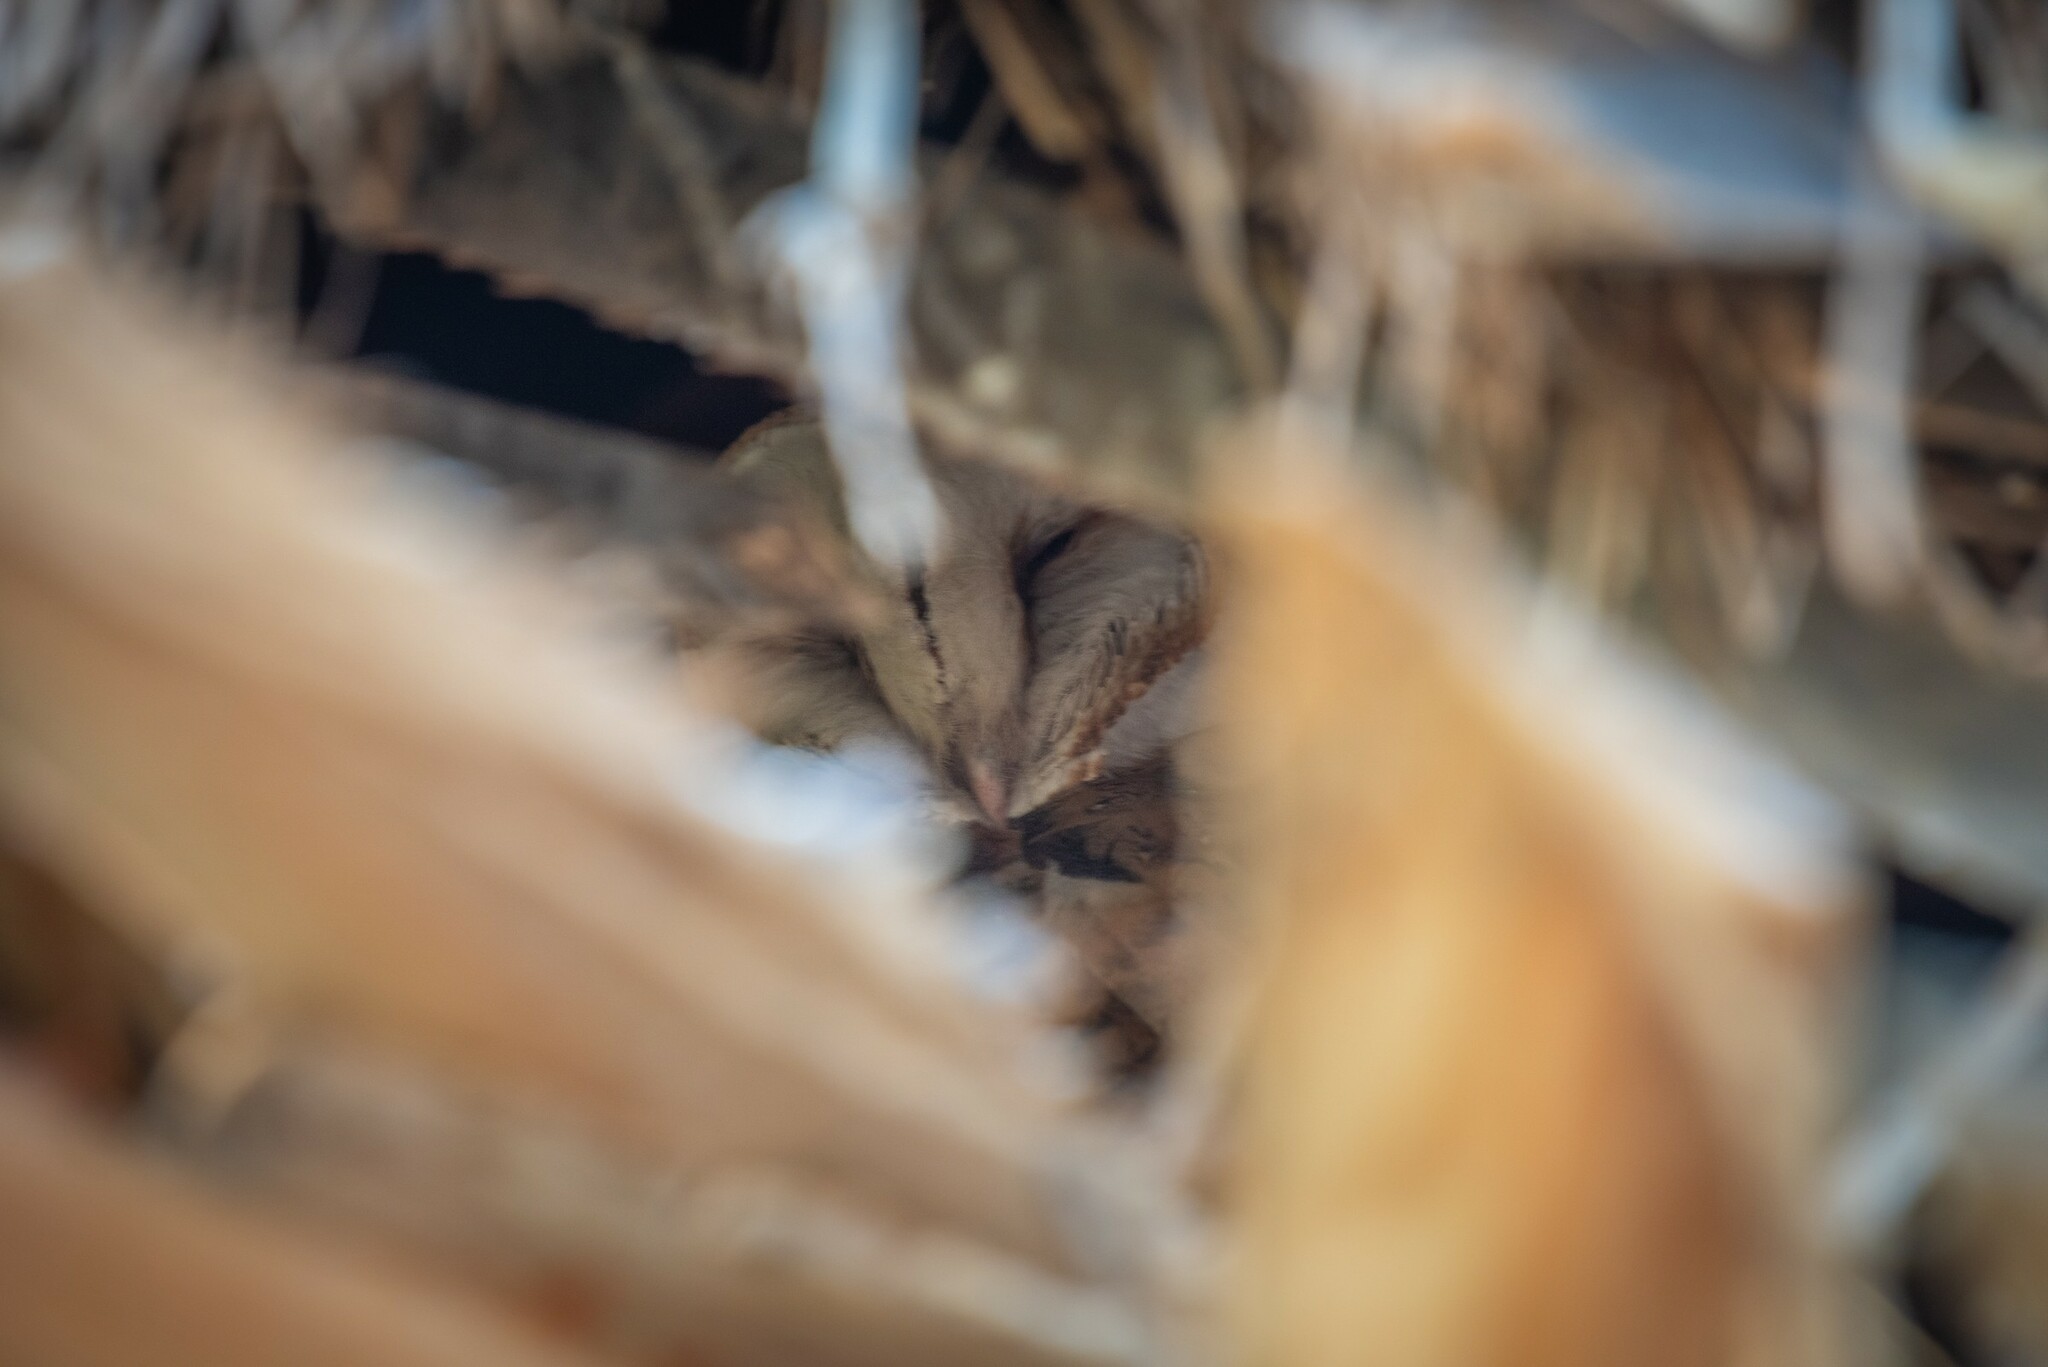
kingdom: Animalia
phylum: Chordata
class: Aves
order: Strigiformes
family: Tytonidae
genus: Tyto
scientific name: Tyto alba
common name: Barn owl
